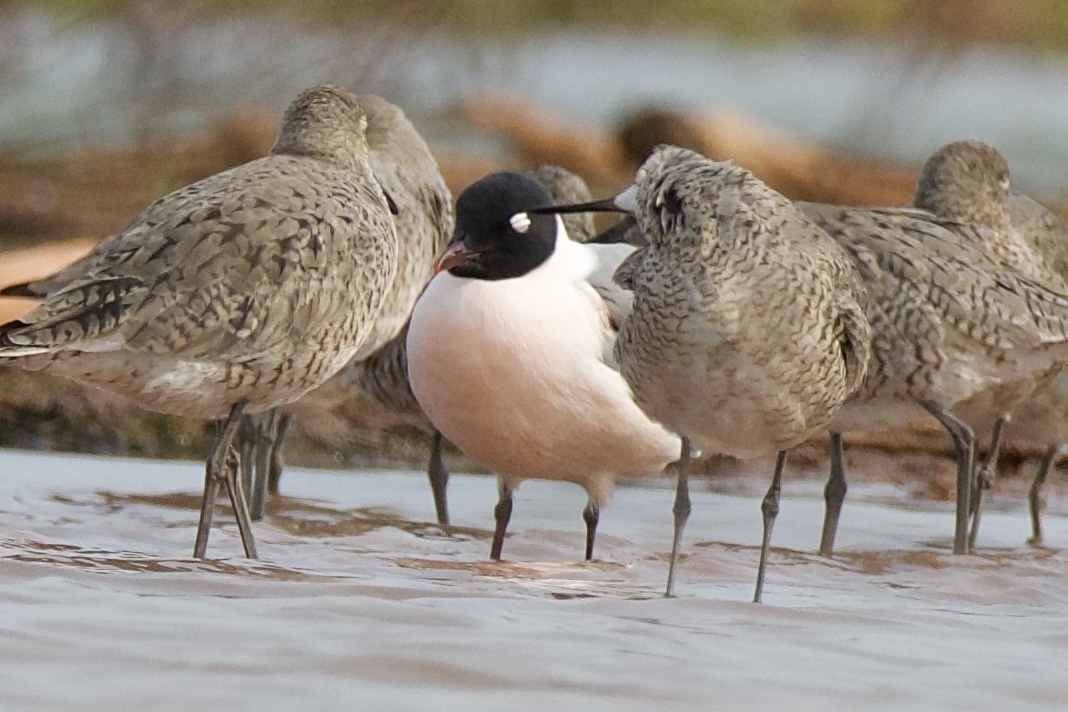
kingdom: Animalia
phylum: Chordata
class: Aves
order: Charadriiformes
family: Laridae
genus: Leucophaeus
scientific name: Leucophaeus pipixcan
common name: Franklin's gull
